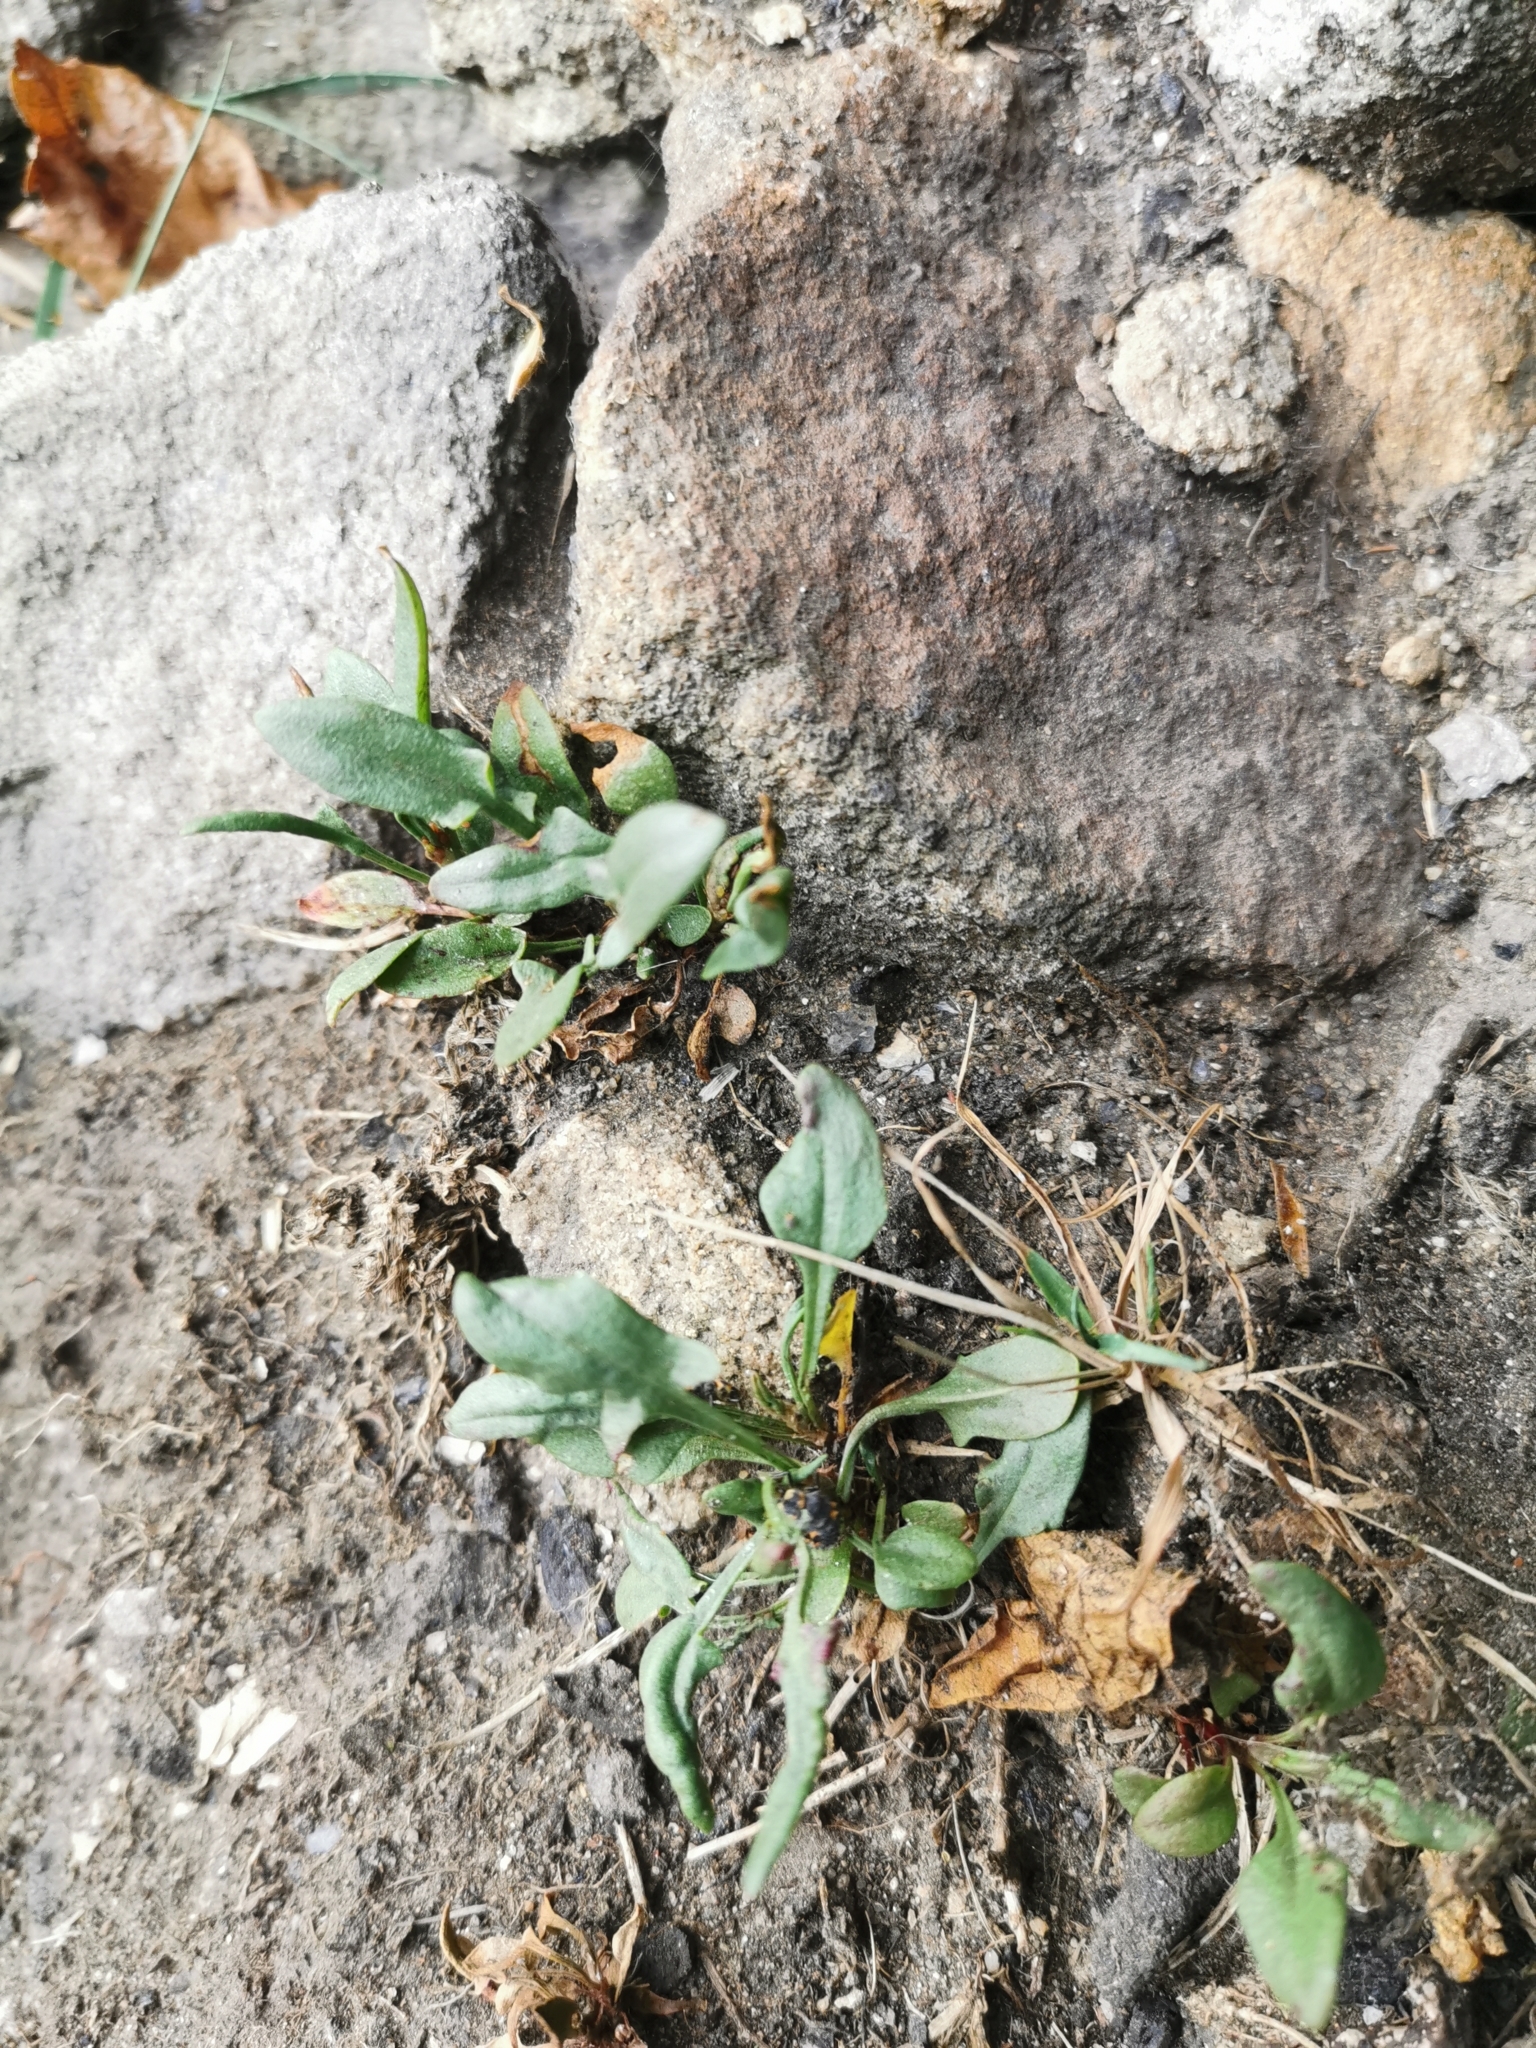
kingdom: Plantae
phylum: Tracheophyta
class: Magnoliopsida
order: Caryophyllales
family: Polygonaceae
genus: Rumex
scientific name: Rumex acetosella
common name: Common sheep sorrel
